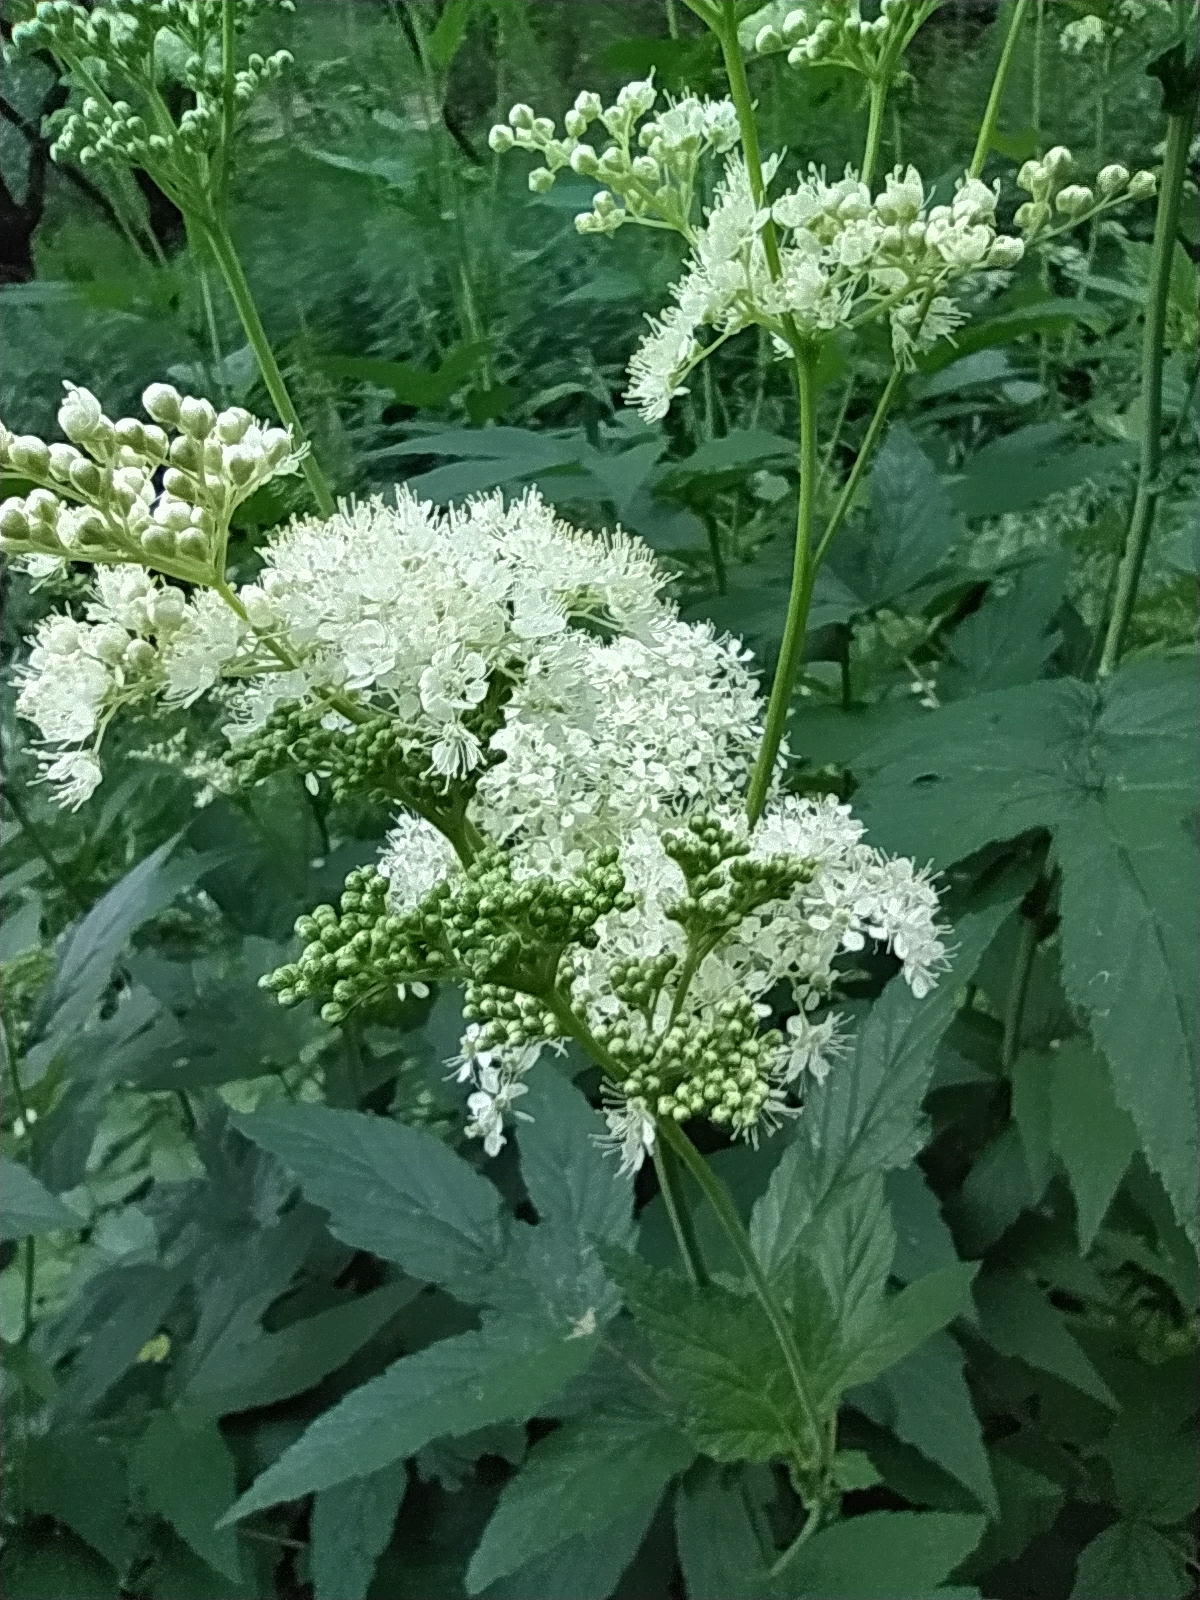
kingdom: Plantae
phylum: Tracheophyta
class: Magnoliopsida
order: Rosales
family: Rosaceae
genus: Filipendula
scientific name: Filipendula ulmaria
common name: Meadowsweet
